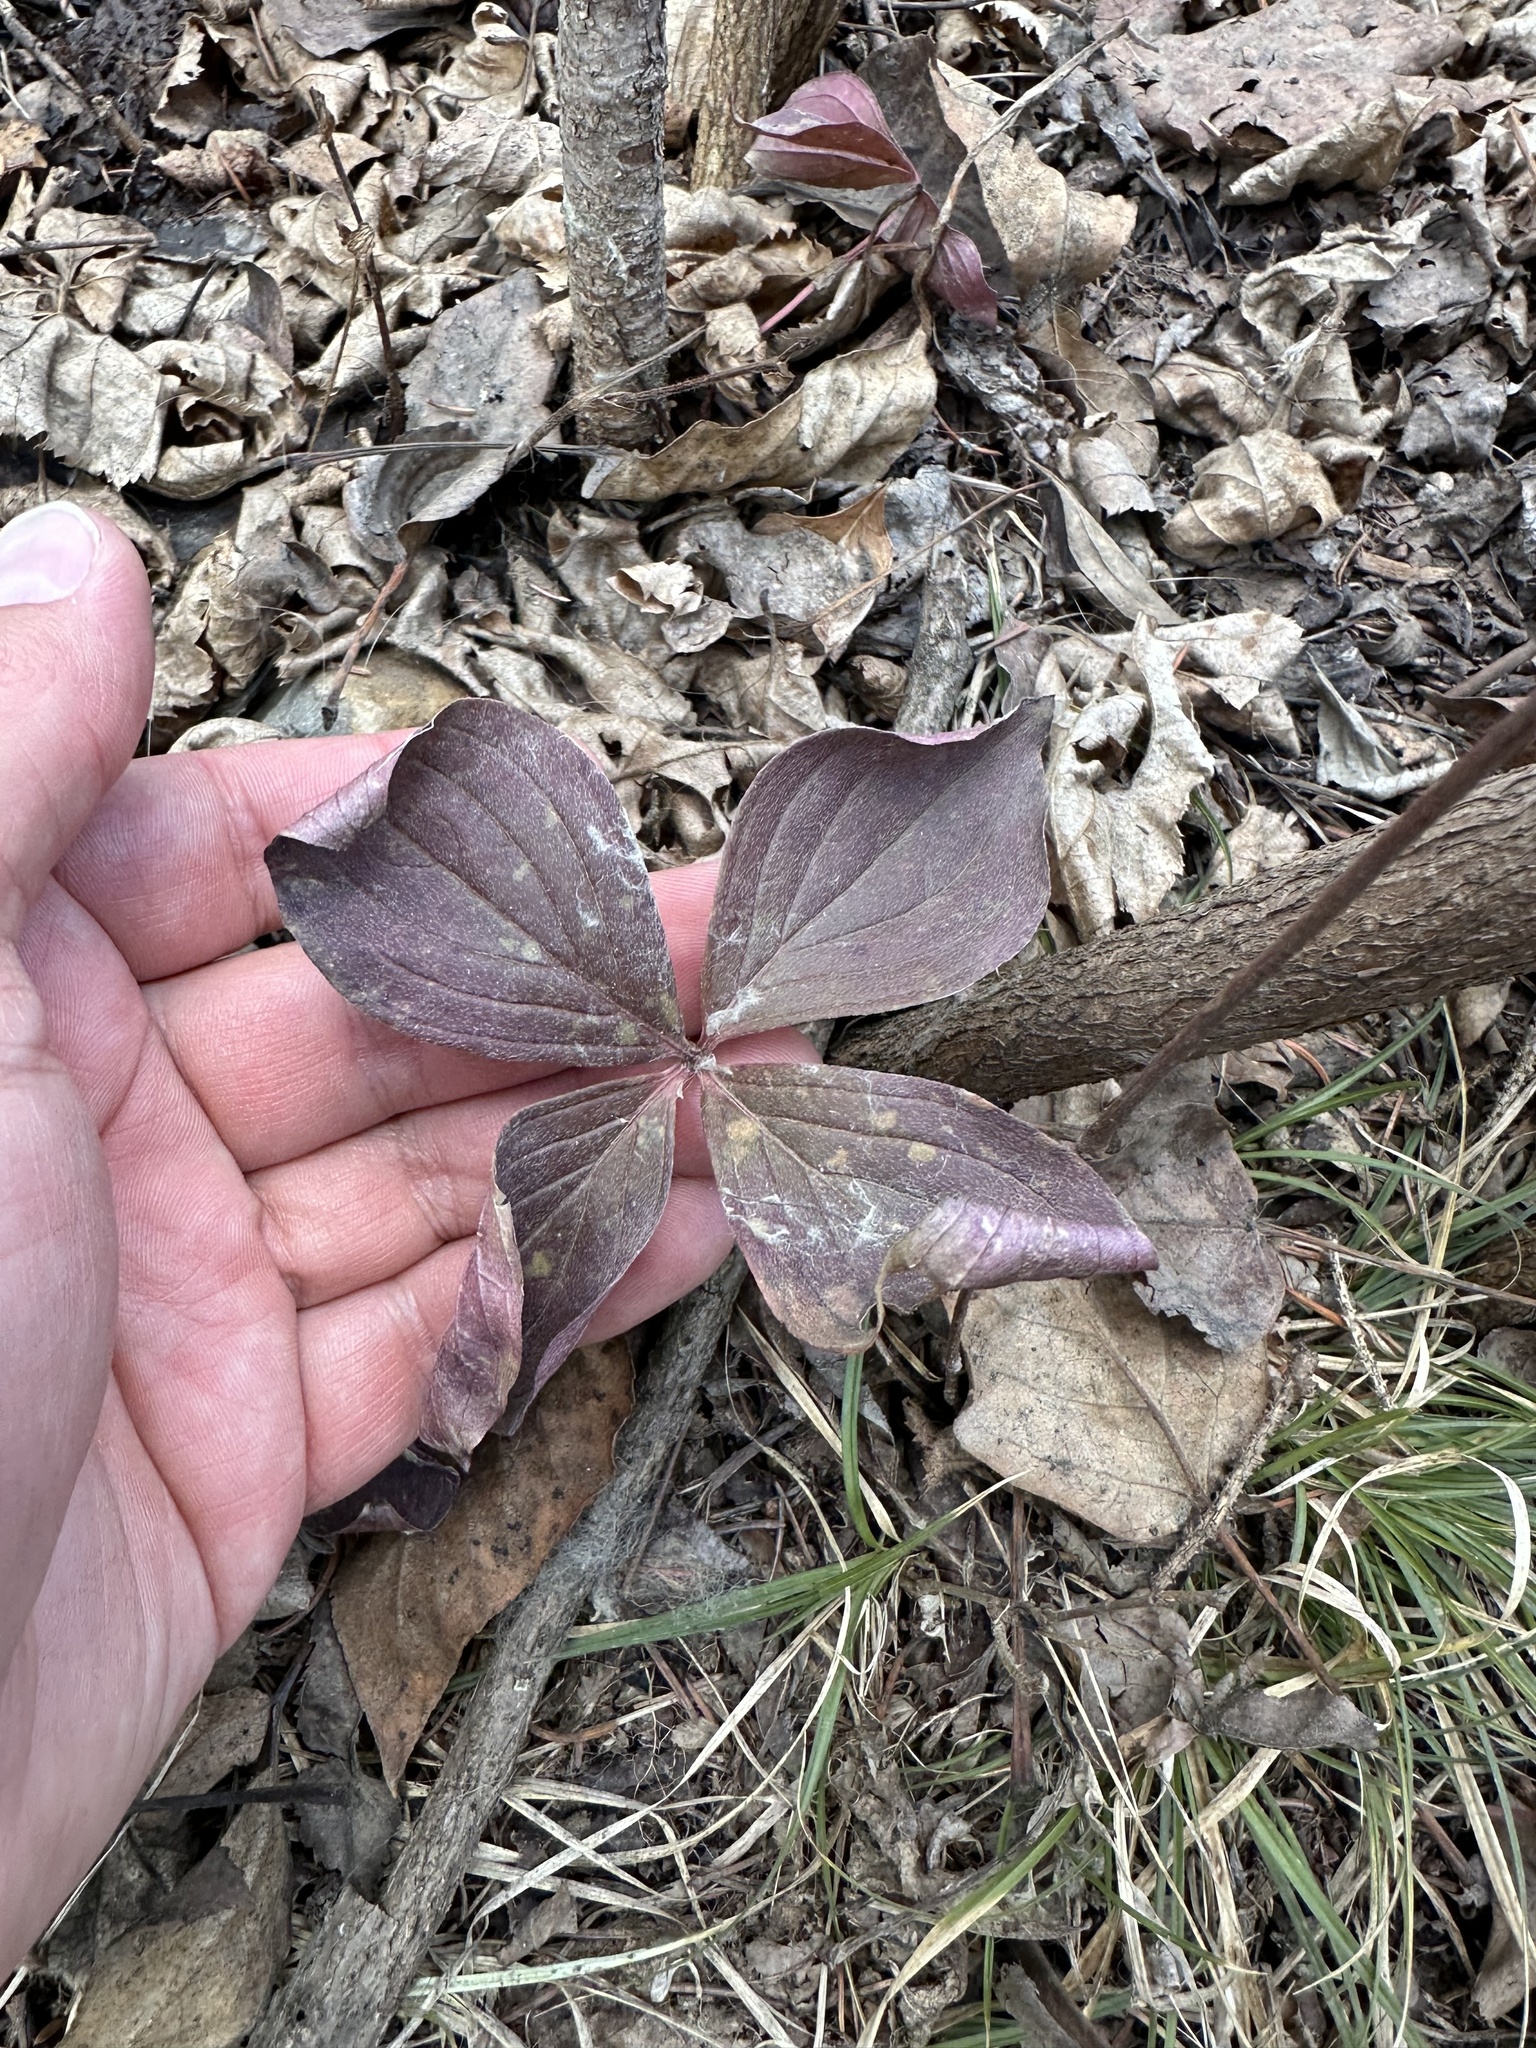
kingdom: Plantae
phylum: Tracheophyta
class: Magnoliopsida
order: Cornales
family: Cornaceae
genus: Cornus
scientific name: Cornus canadensis
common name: Creeping dogwood
